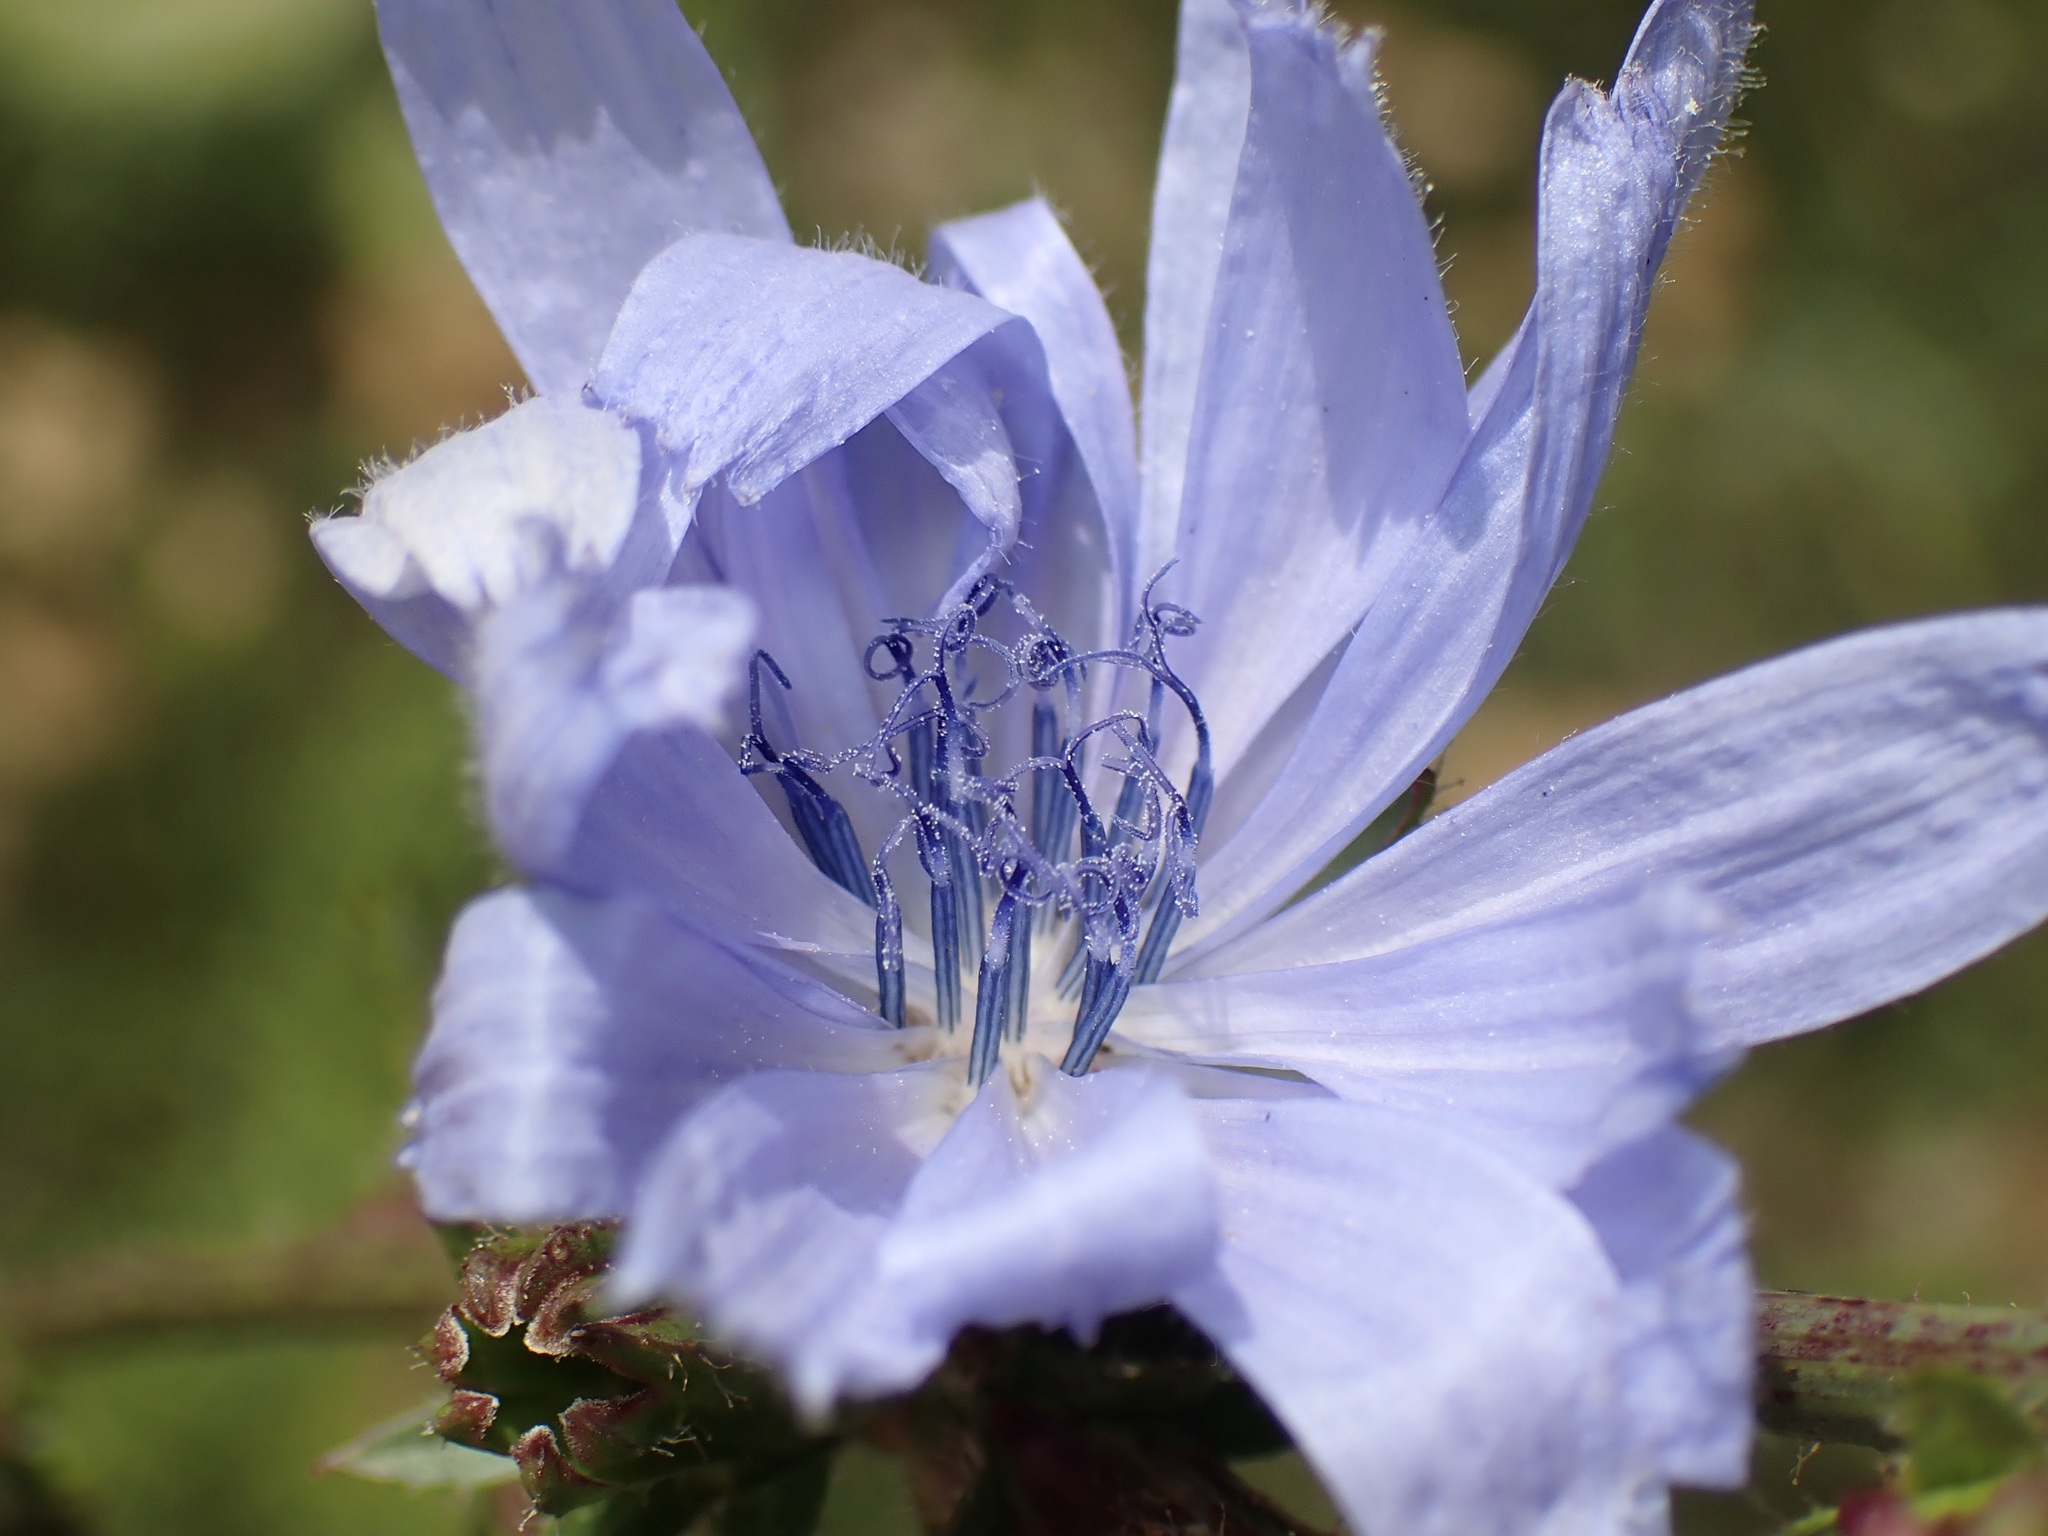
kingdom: Plantae
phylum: Tracheophyta
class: Magnoliopsida
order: Asterales
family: Asteraceae
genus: Cichorium
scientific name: Cichorium intybus
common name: Chicory
